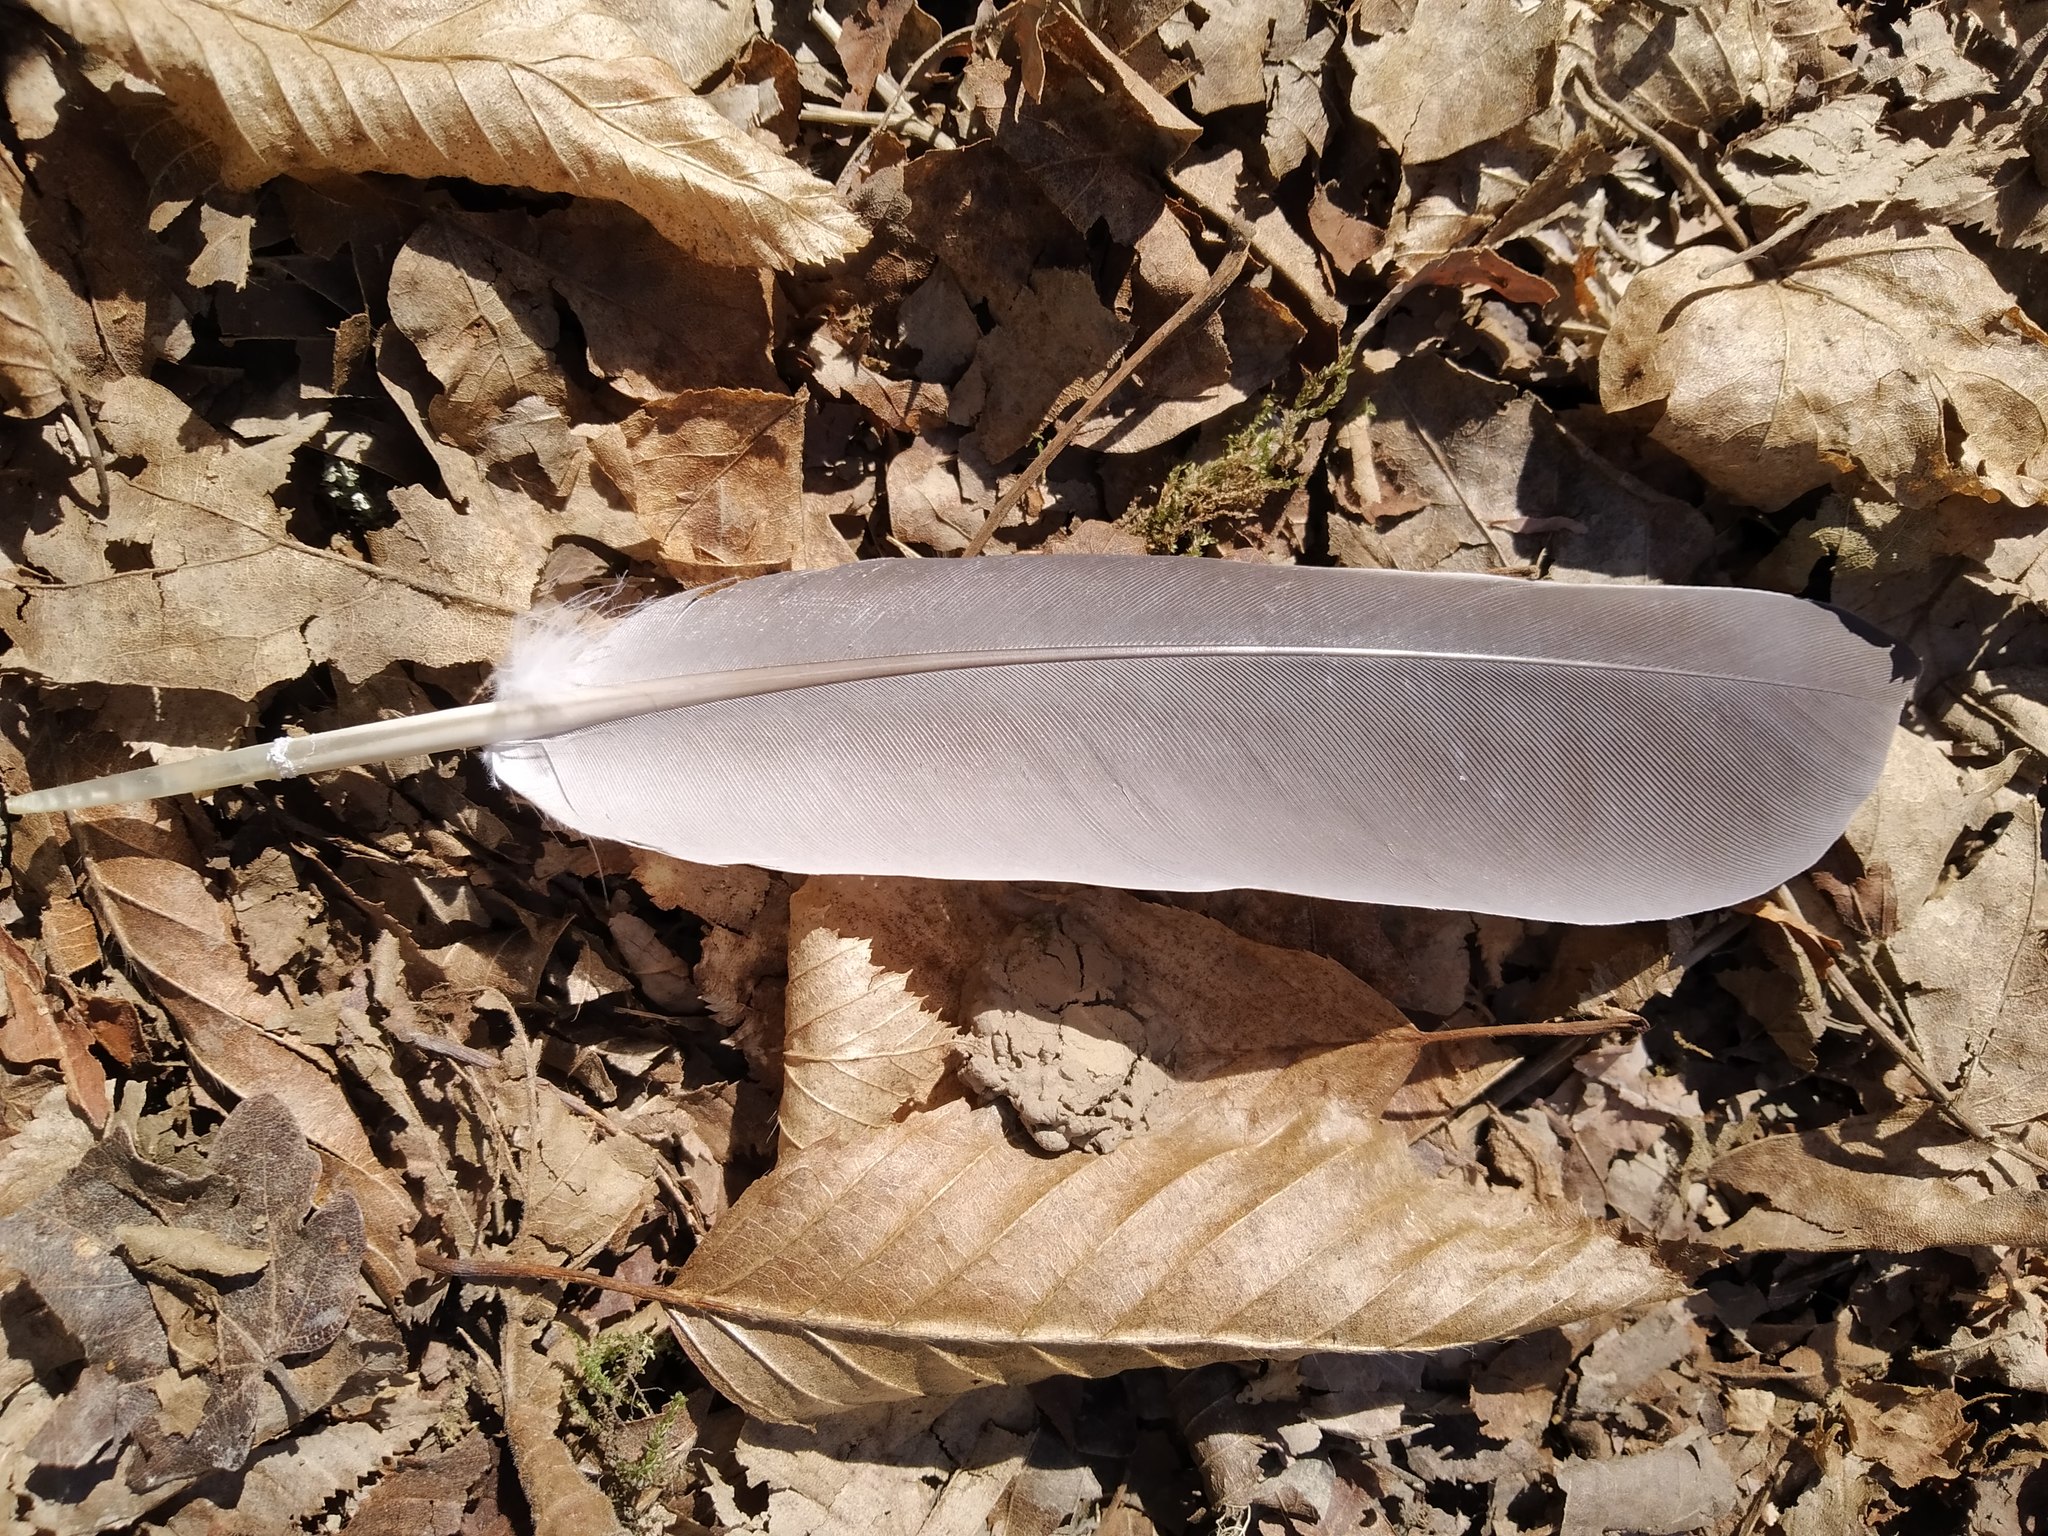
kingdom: Animalia
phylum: Chordata
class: Aves
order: Columbiformes
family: Columbidae
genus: Columba
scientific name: Columba palumbus
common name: Common wood pigeon
